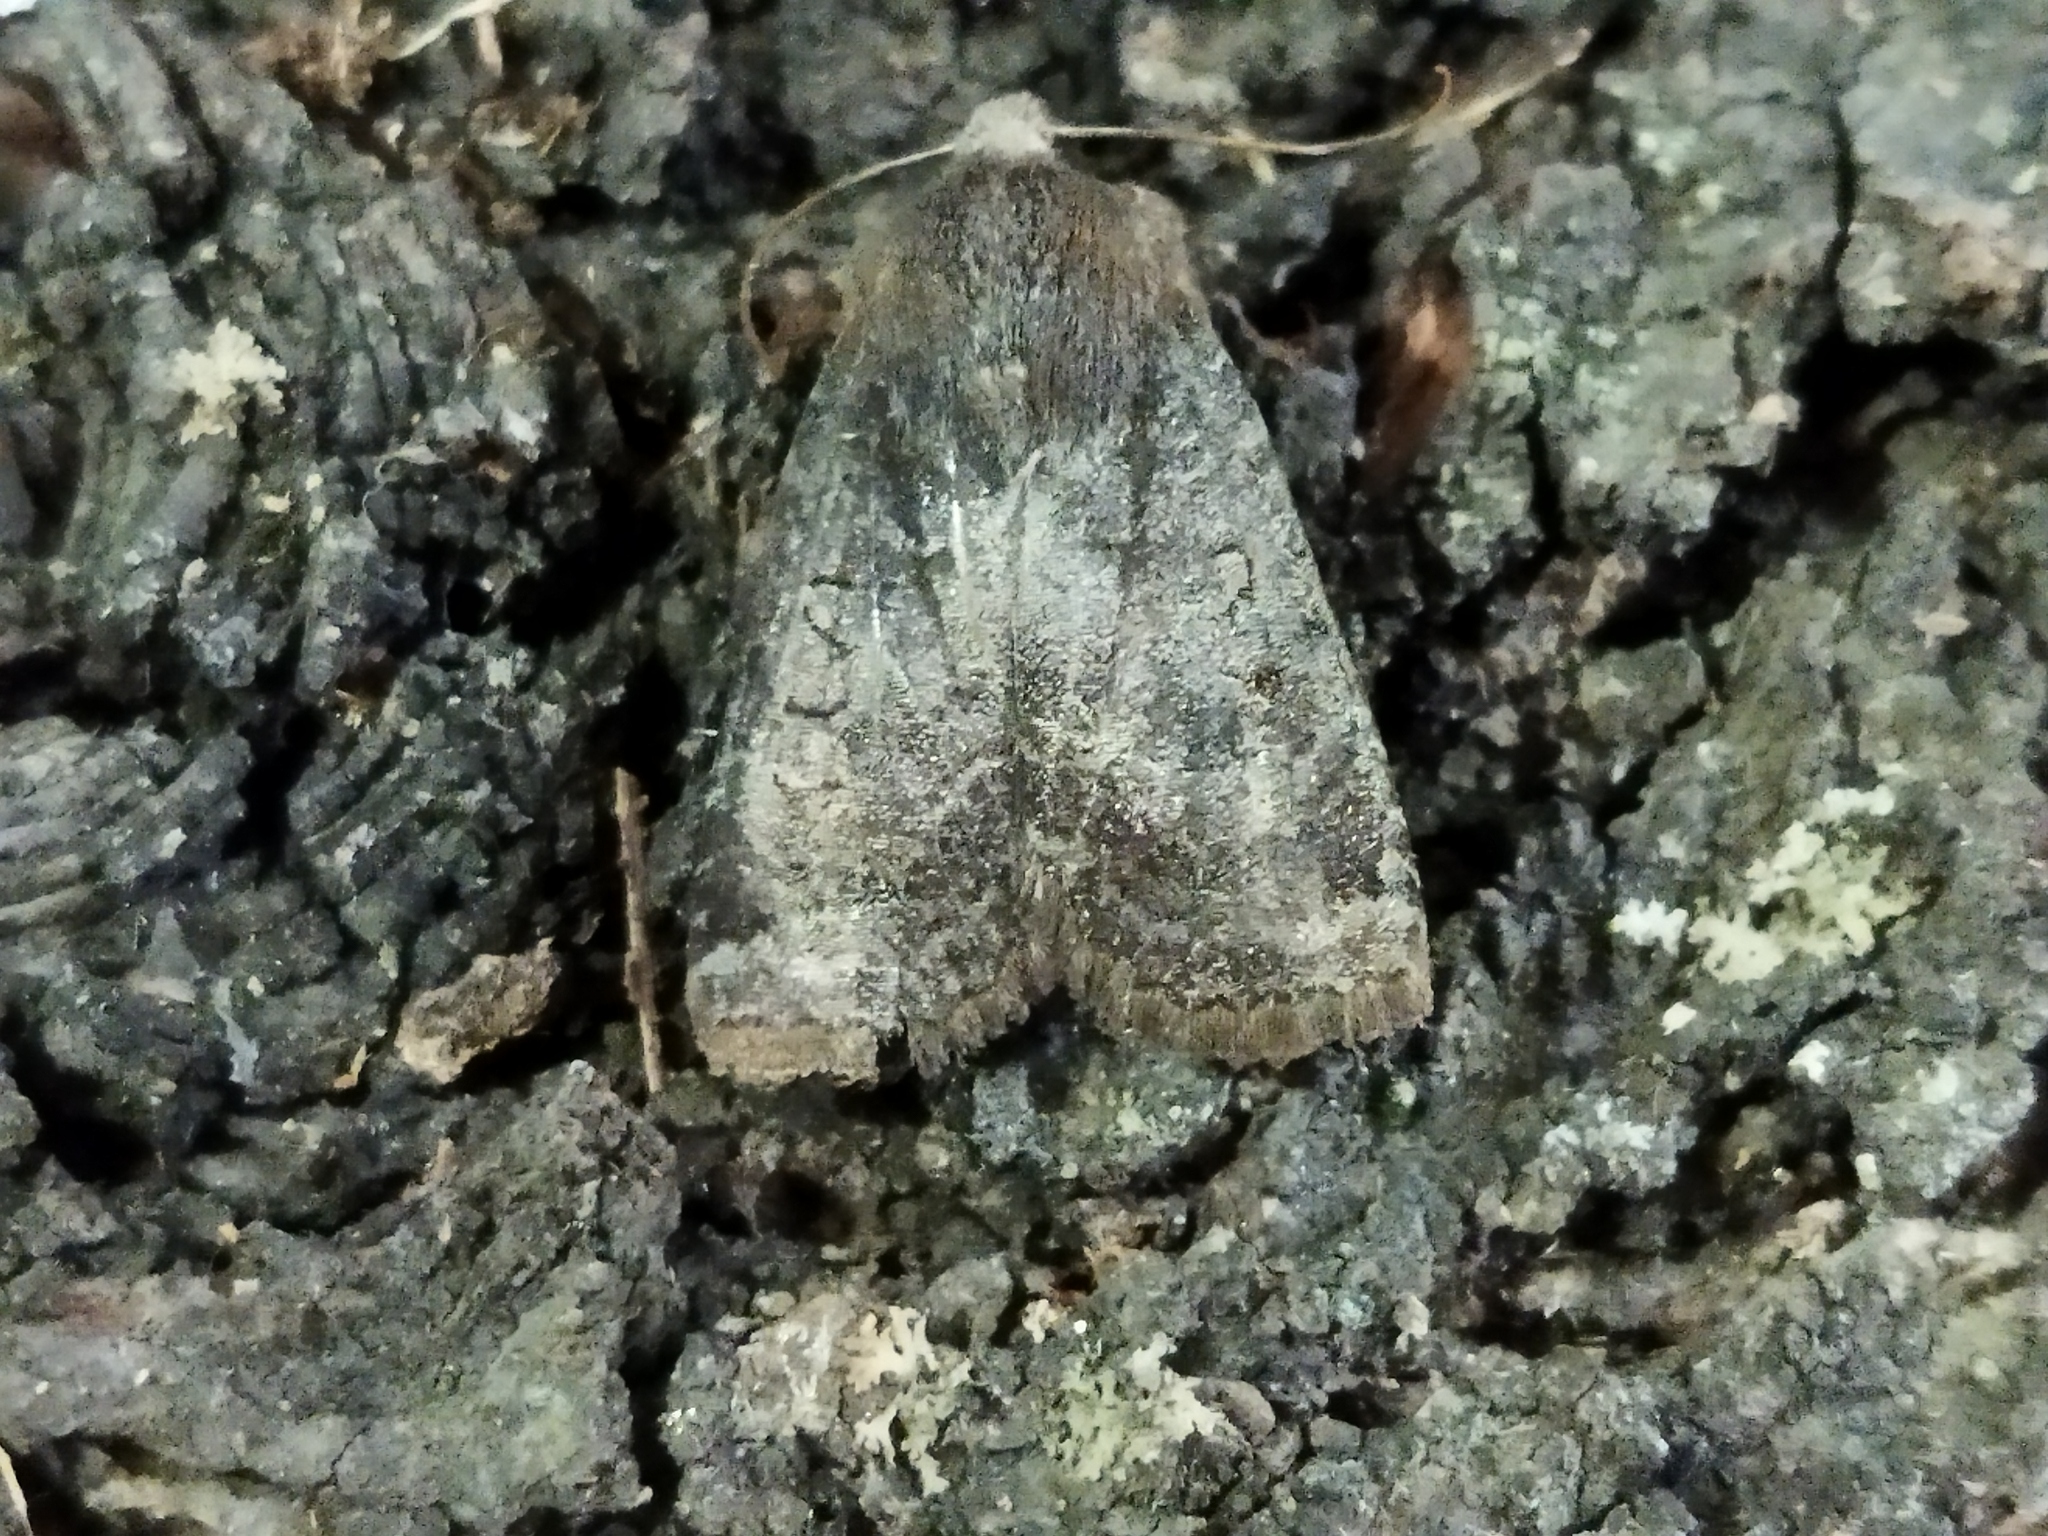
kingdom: Animalia
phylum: Arthropoda
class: Insecta
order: Lepidoptera
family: Noctuidae
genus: Conistra
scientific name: Conistra vaccinii
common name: Chestnut
